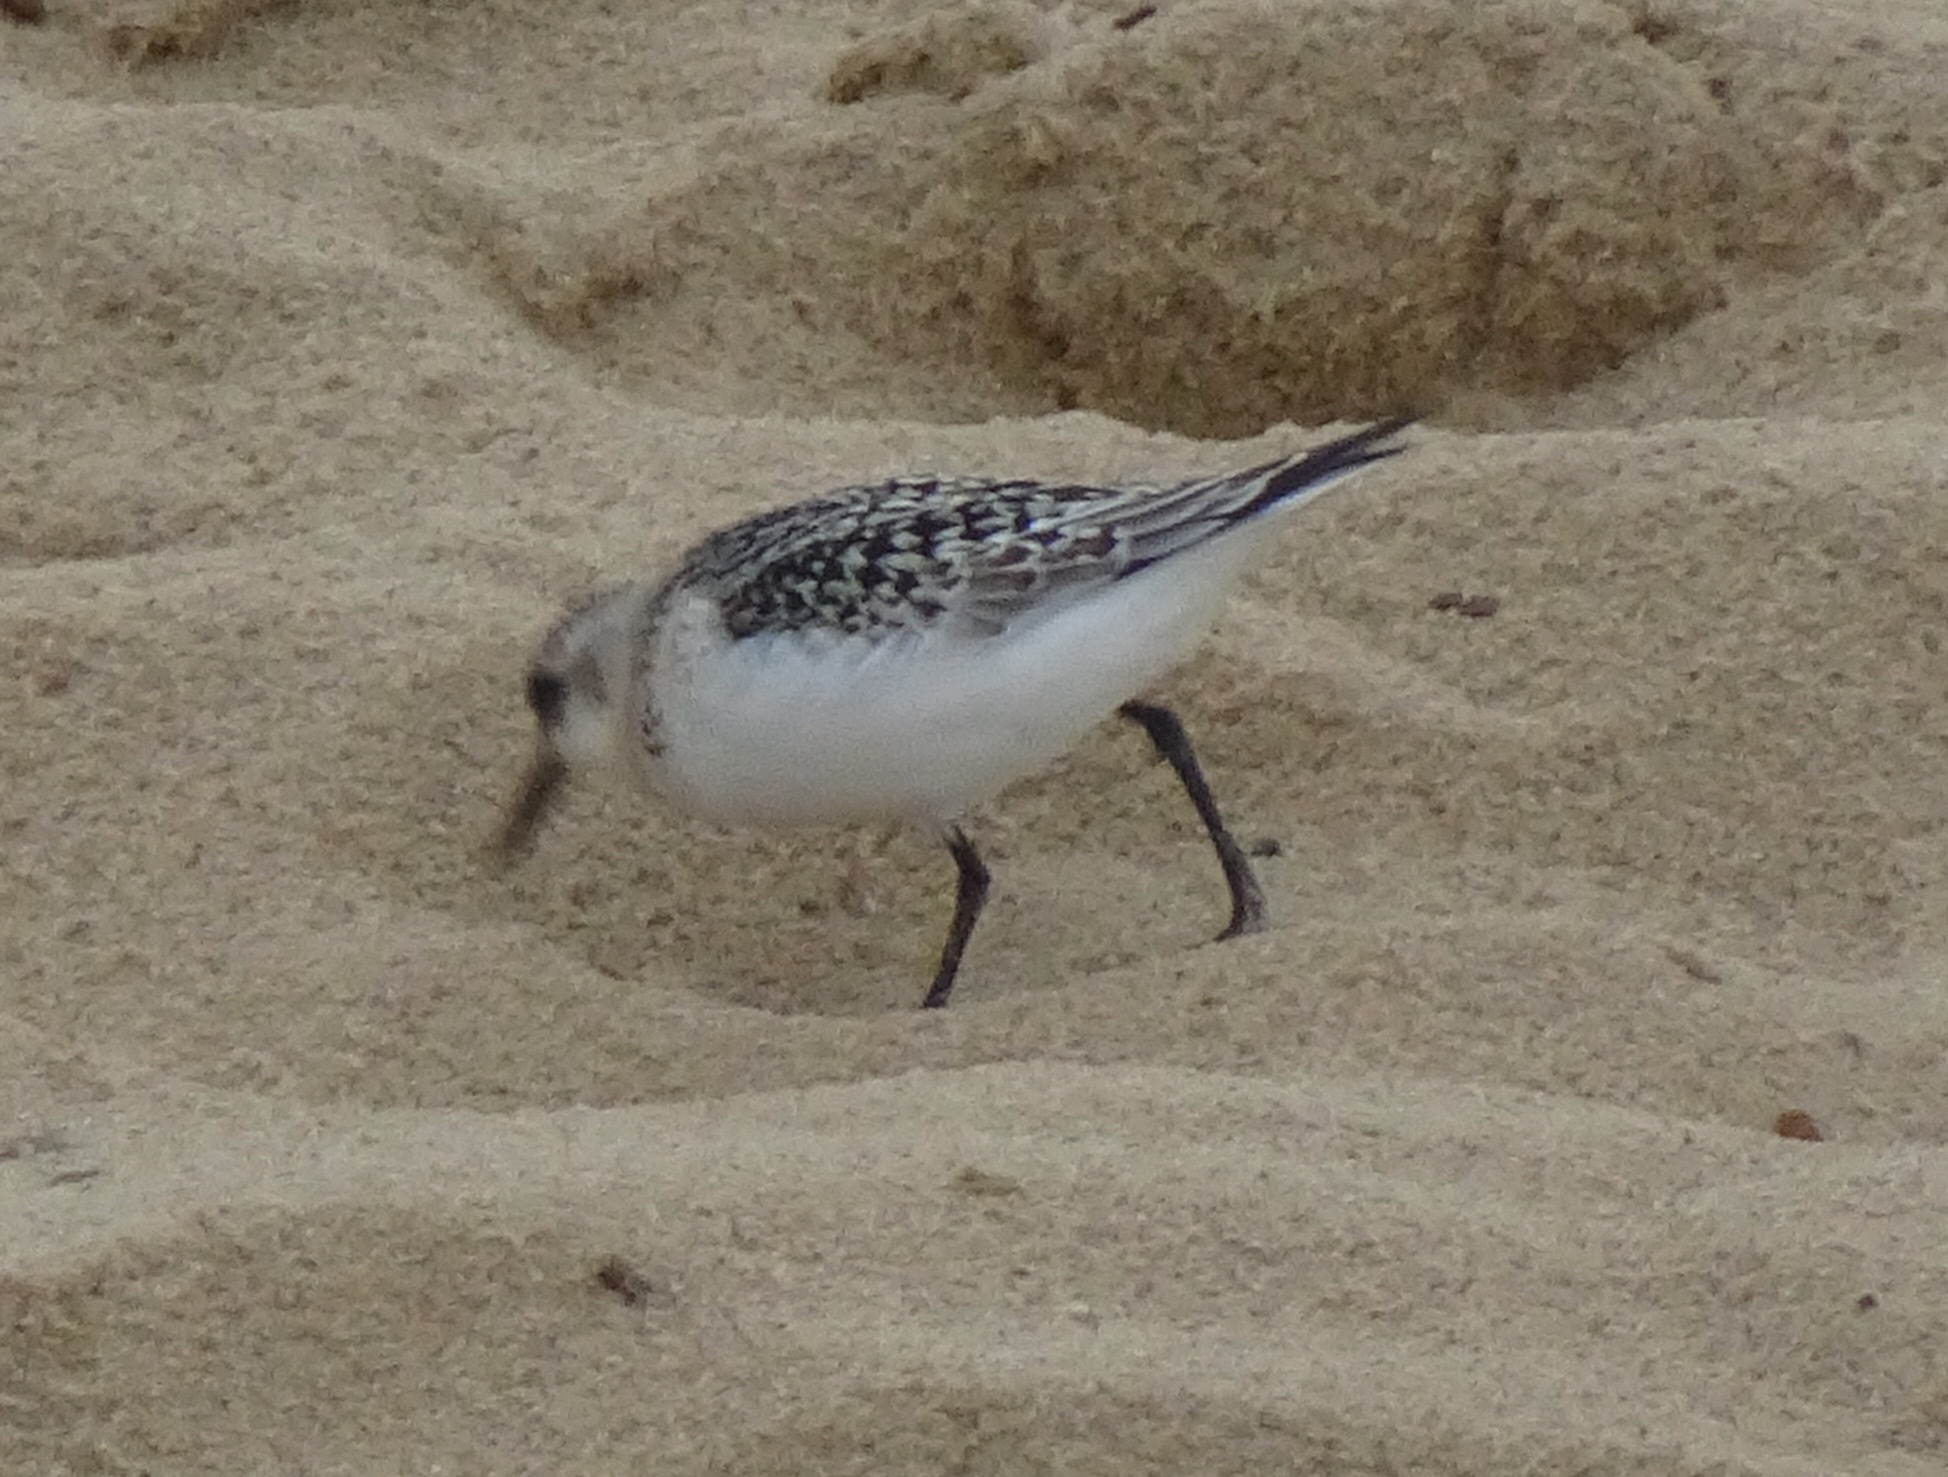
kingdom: Animalia
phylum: Chordata
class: Aves
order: Charadriiformes
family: Scolopacidae
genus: Calidris
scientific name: Calidris alba
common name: Sanderling
